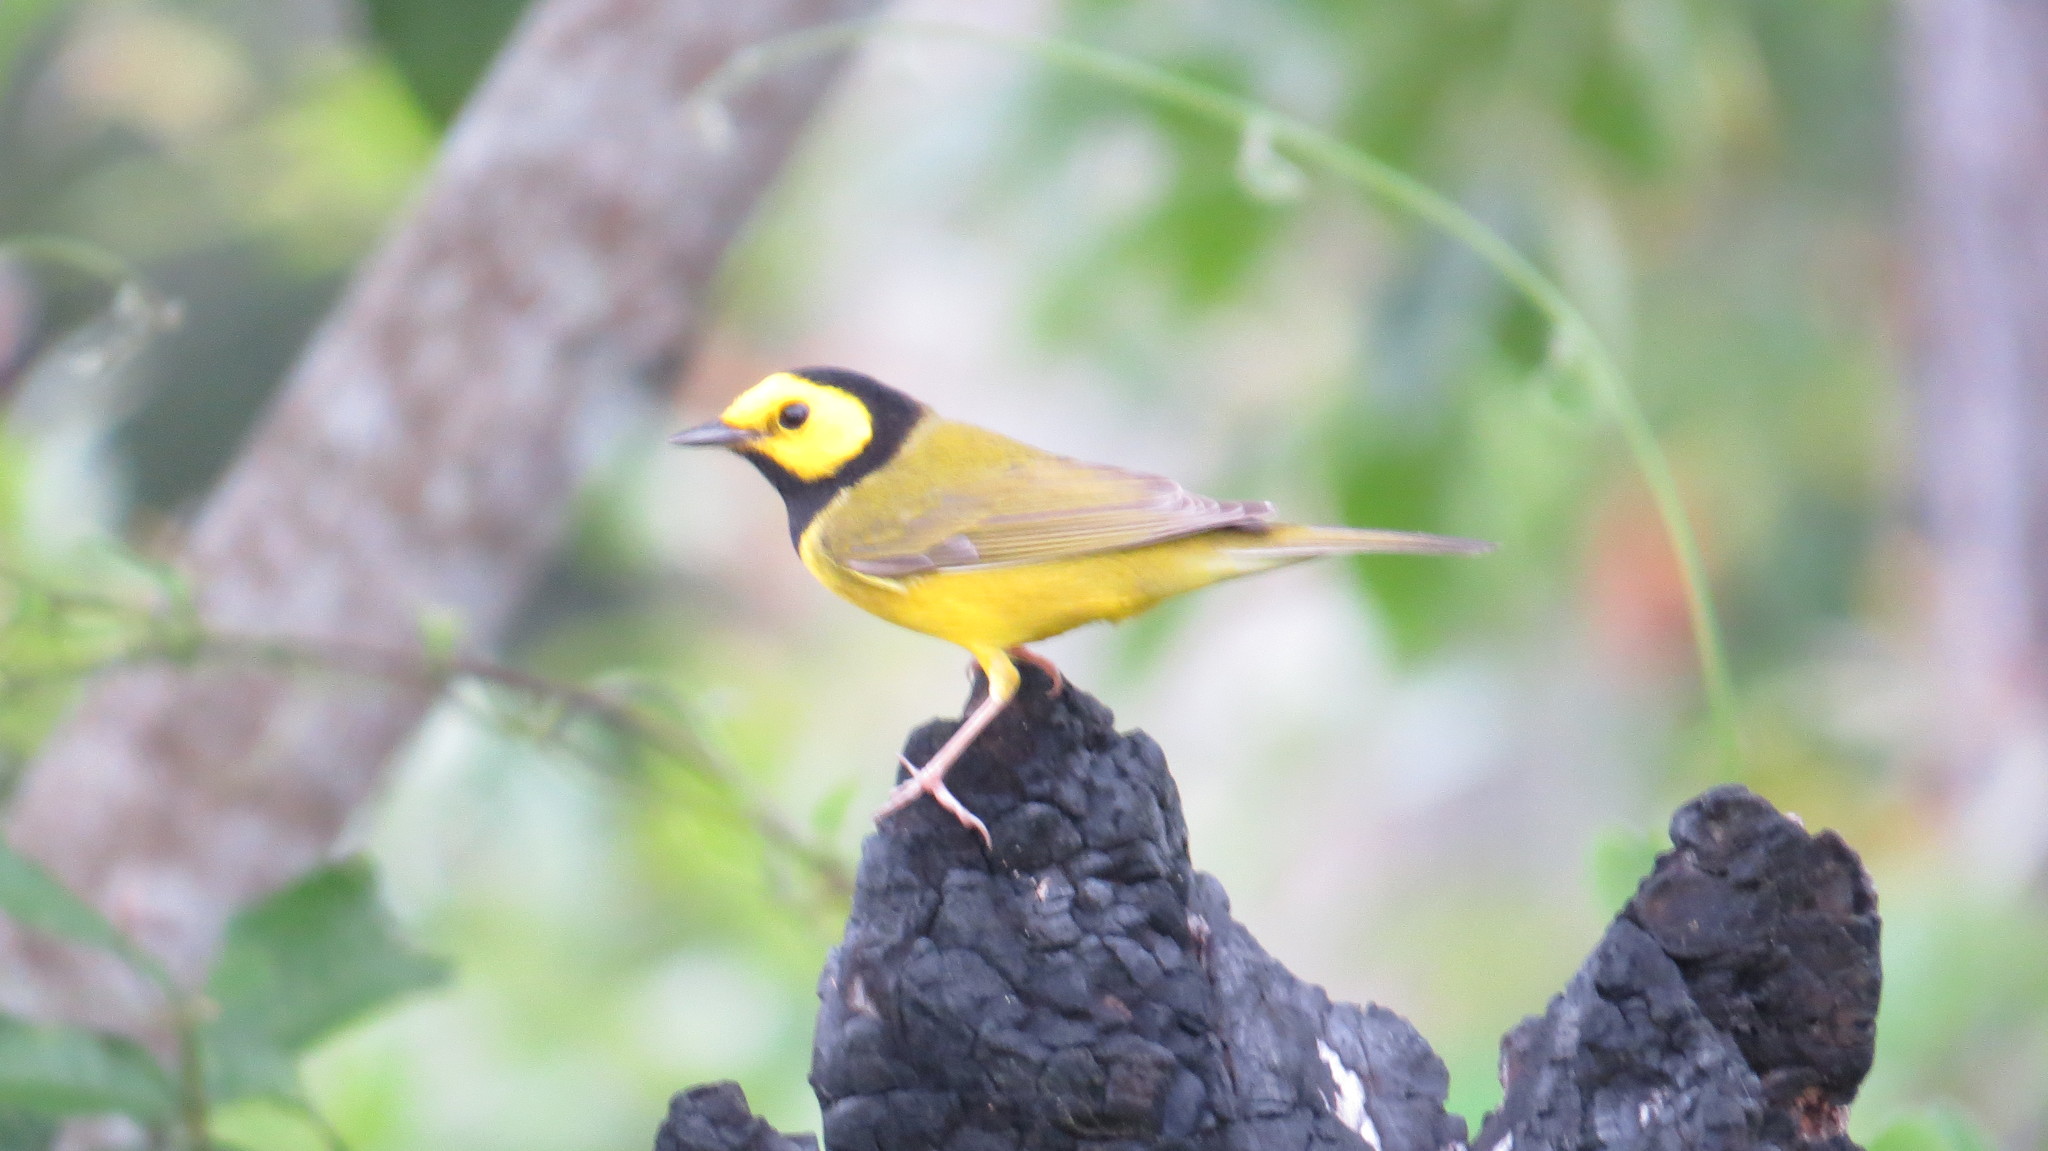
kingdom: Animalia
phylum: Chordata
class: Aves
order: Passeriformes
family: Parulidae
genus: Setophaga
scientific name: Setophaga citrina
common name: Hooded warbler
